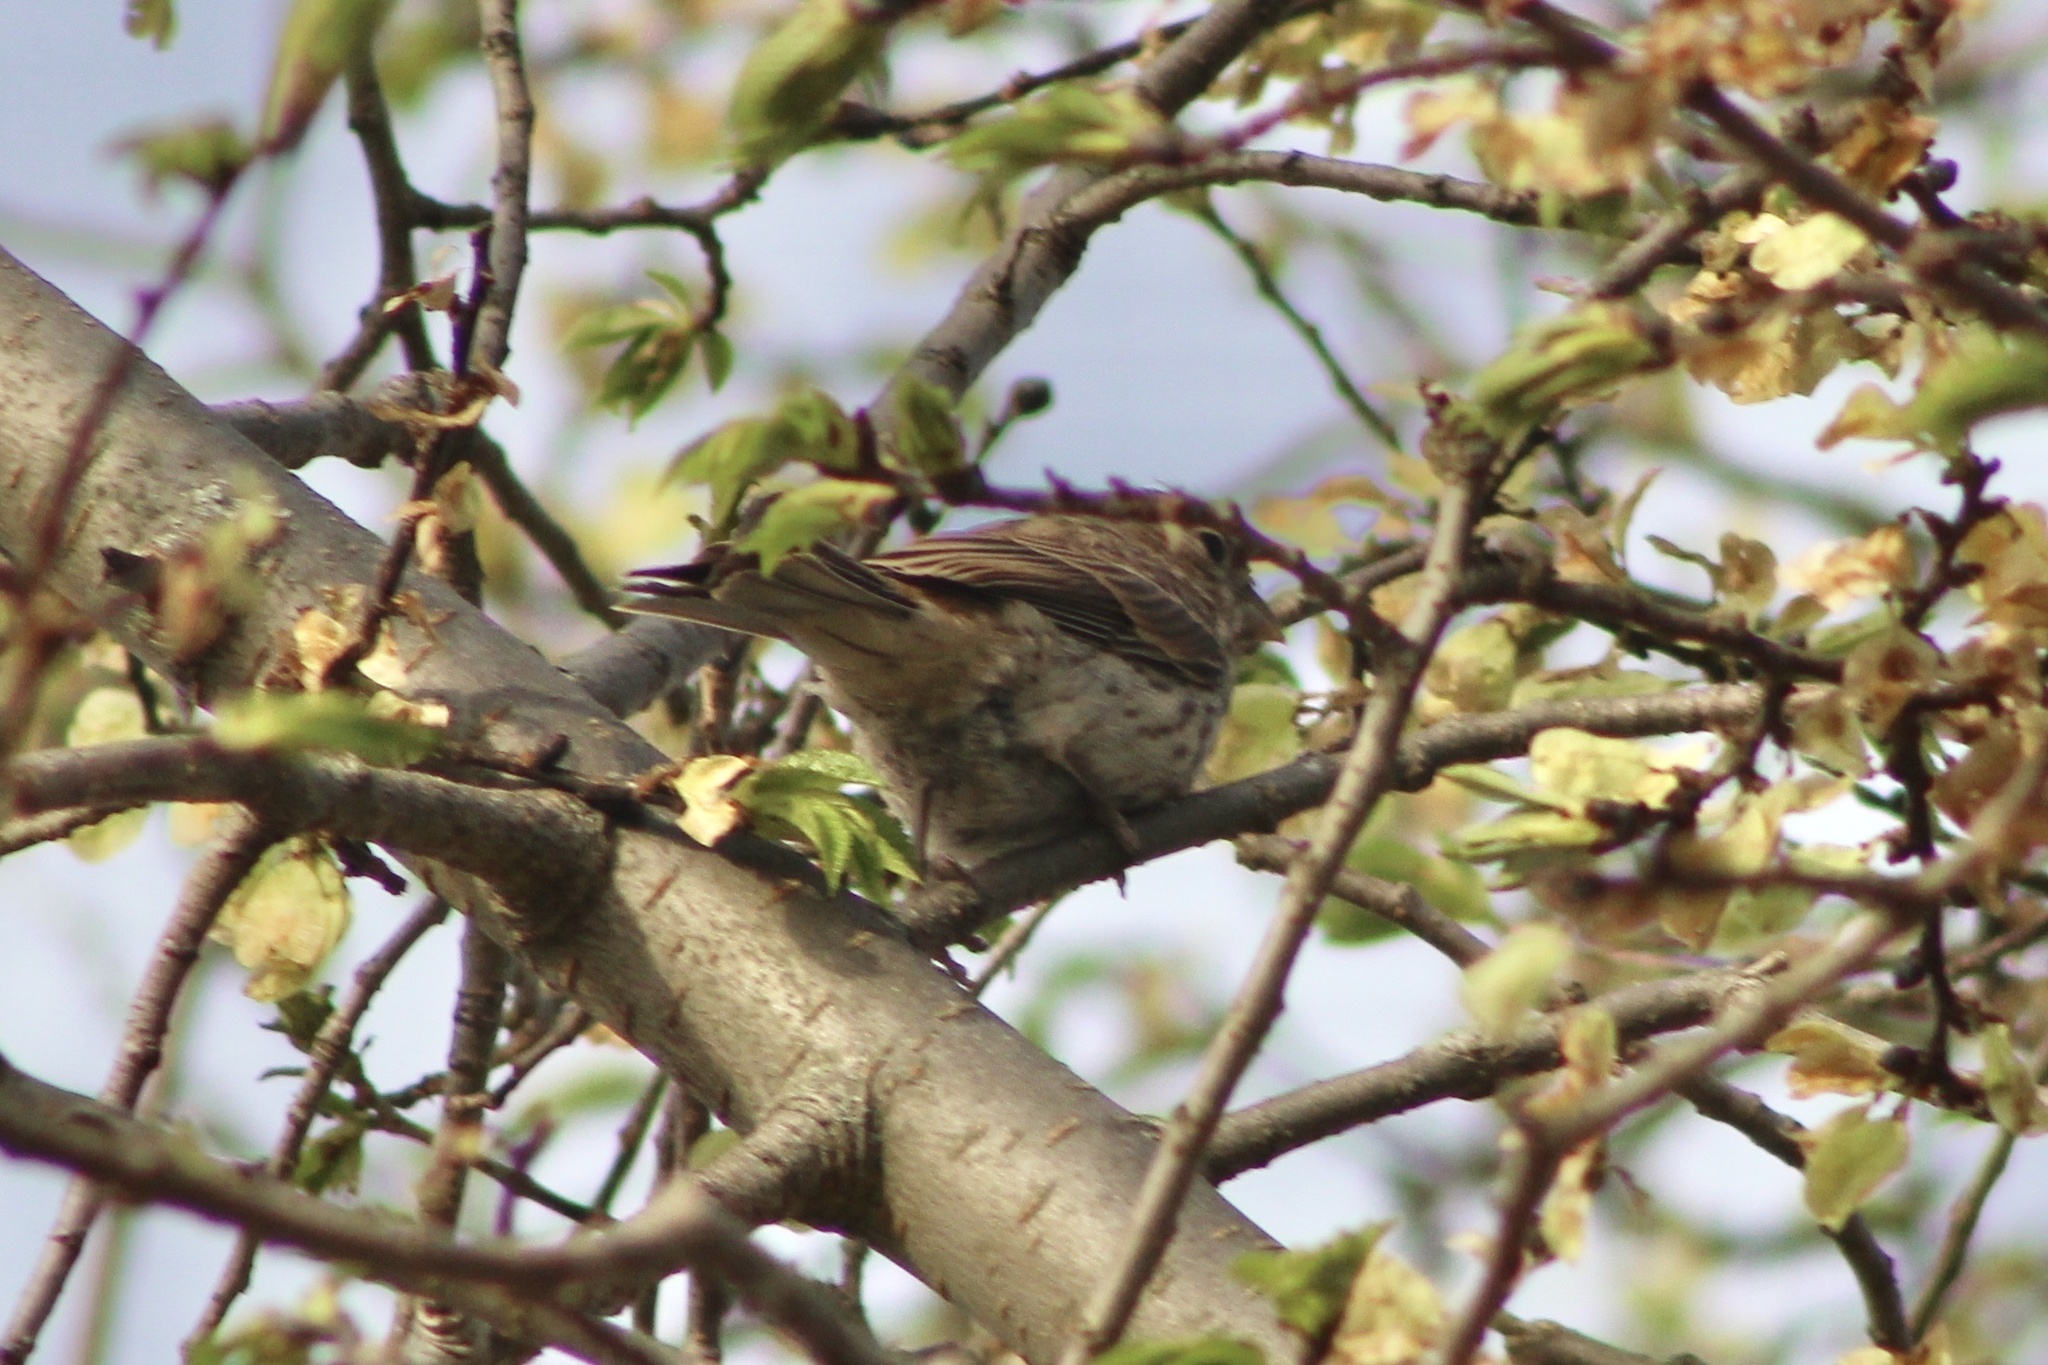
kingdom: Animalia
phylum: Chordata
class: Aves
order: Passeriformes
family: Fringillidae
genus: Haemorhous
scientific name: Haemorhous mexicanus
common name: House finch
